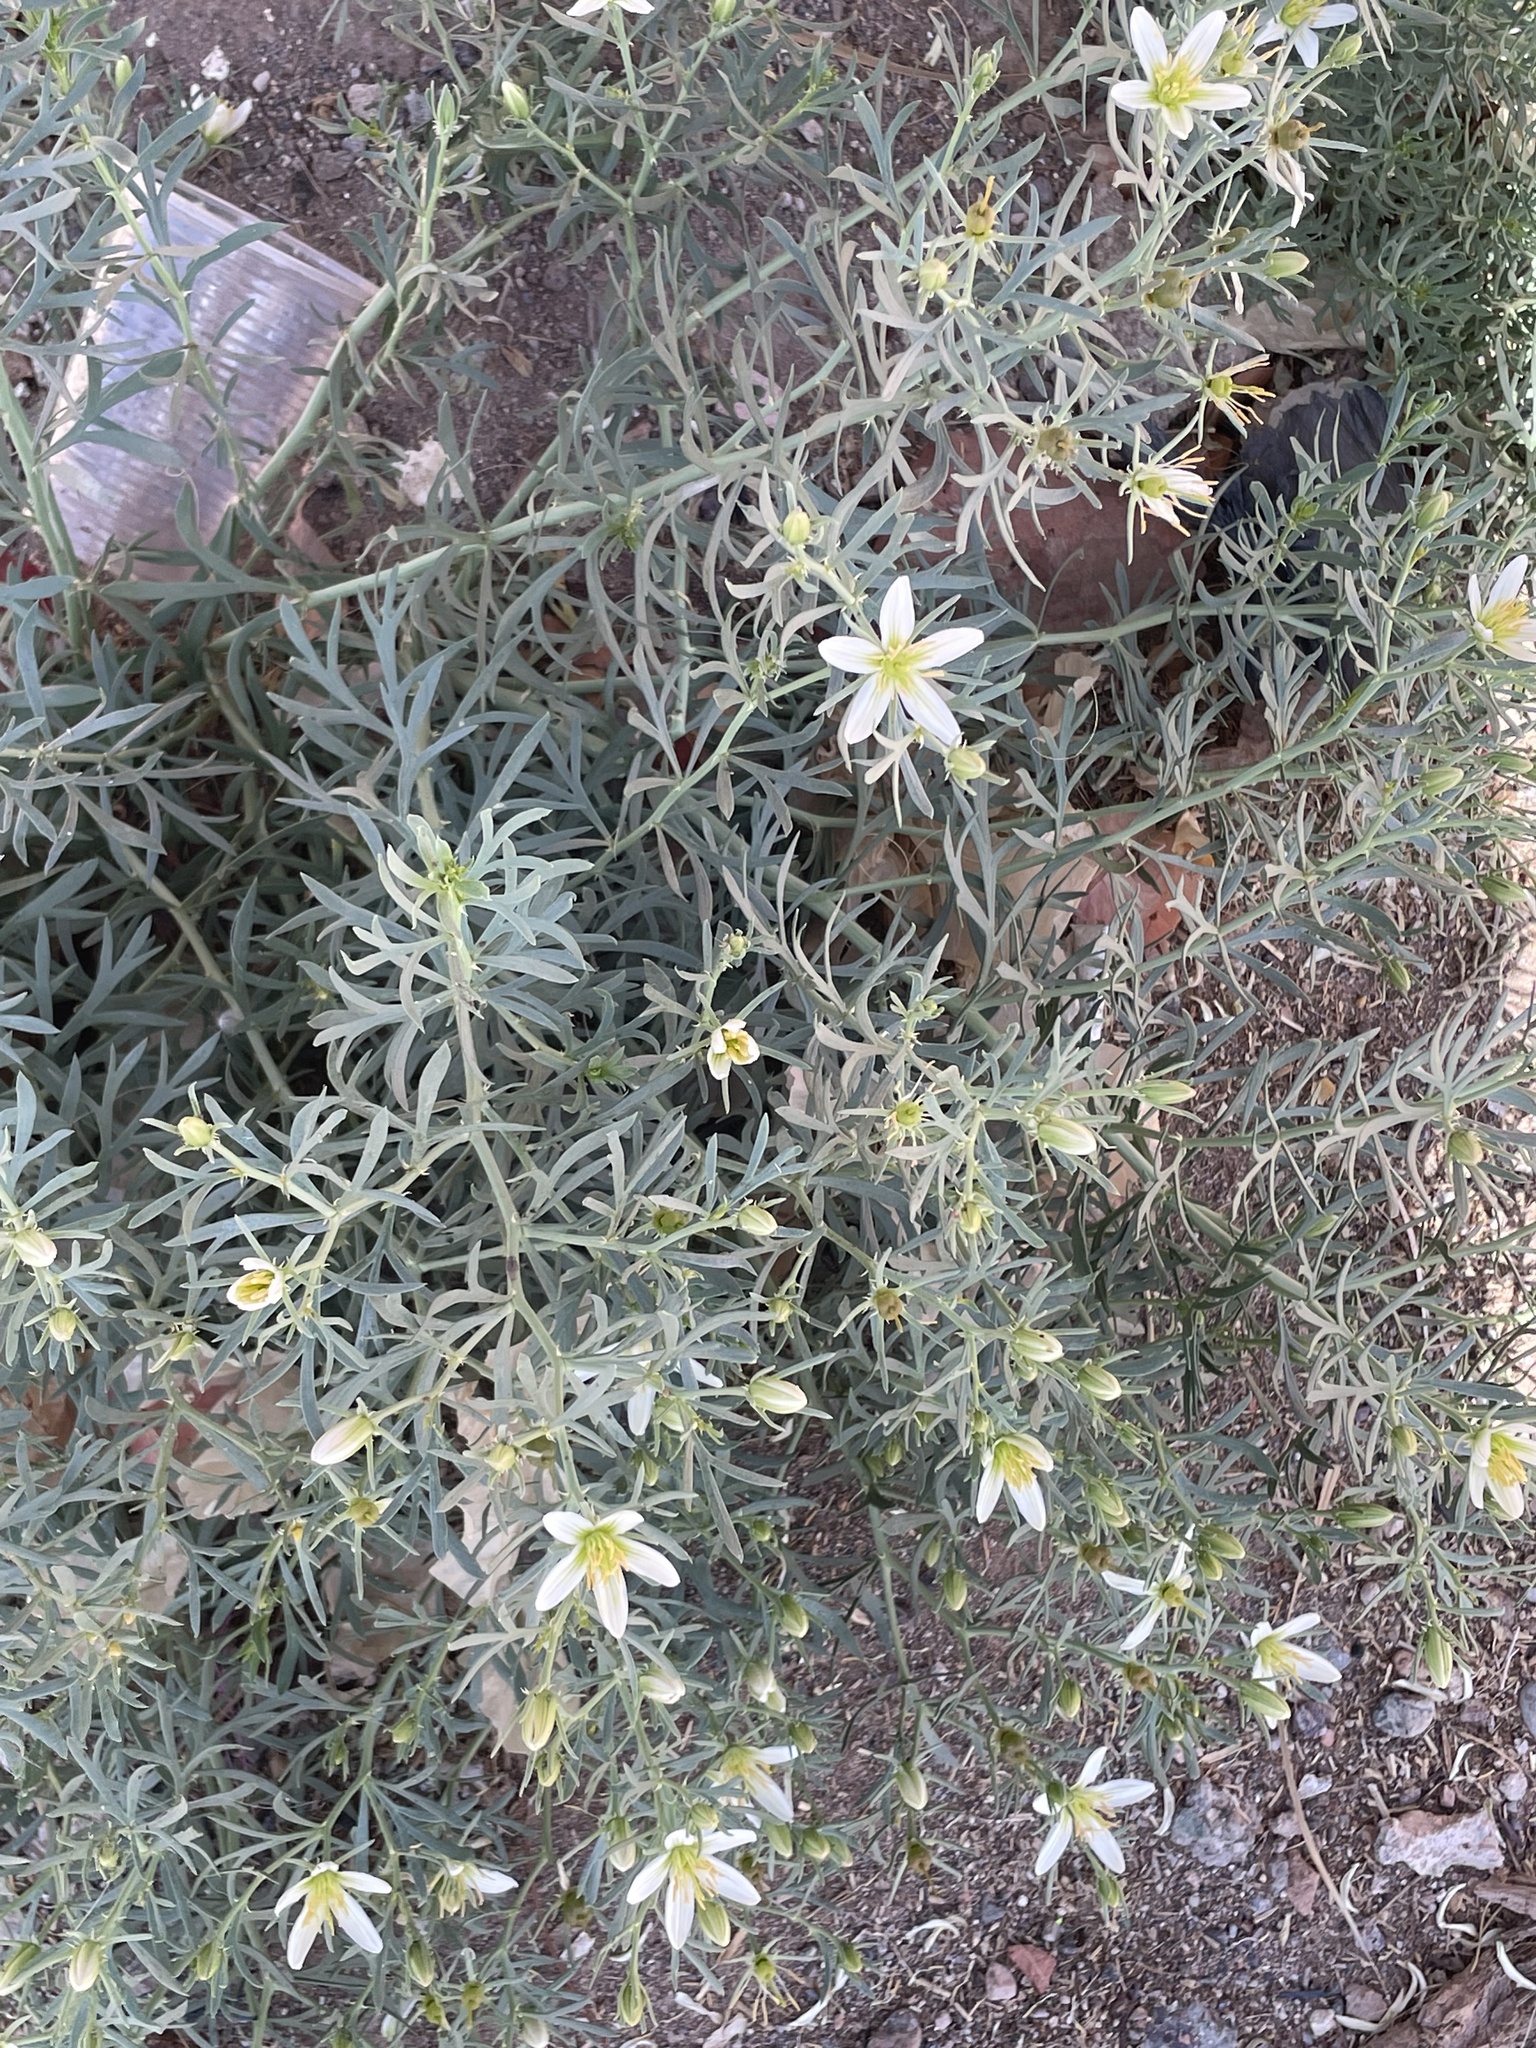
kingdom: Plantae
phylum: Tracheophyta
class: Magnoliopsida
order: Sapindales
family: Tetradiclidaceae
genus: Peganum
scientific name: Peganum harmala
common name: Harmal peganum
